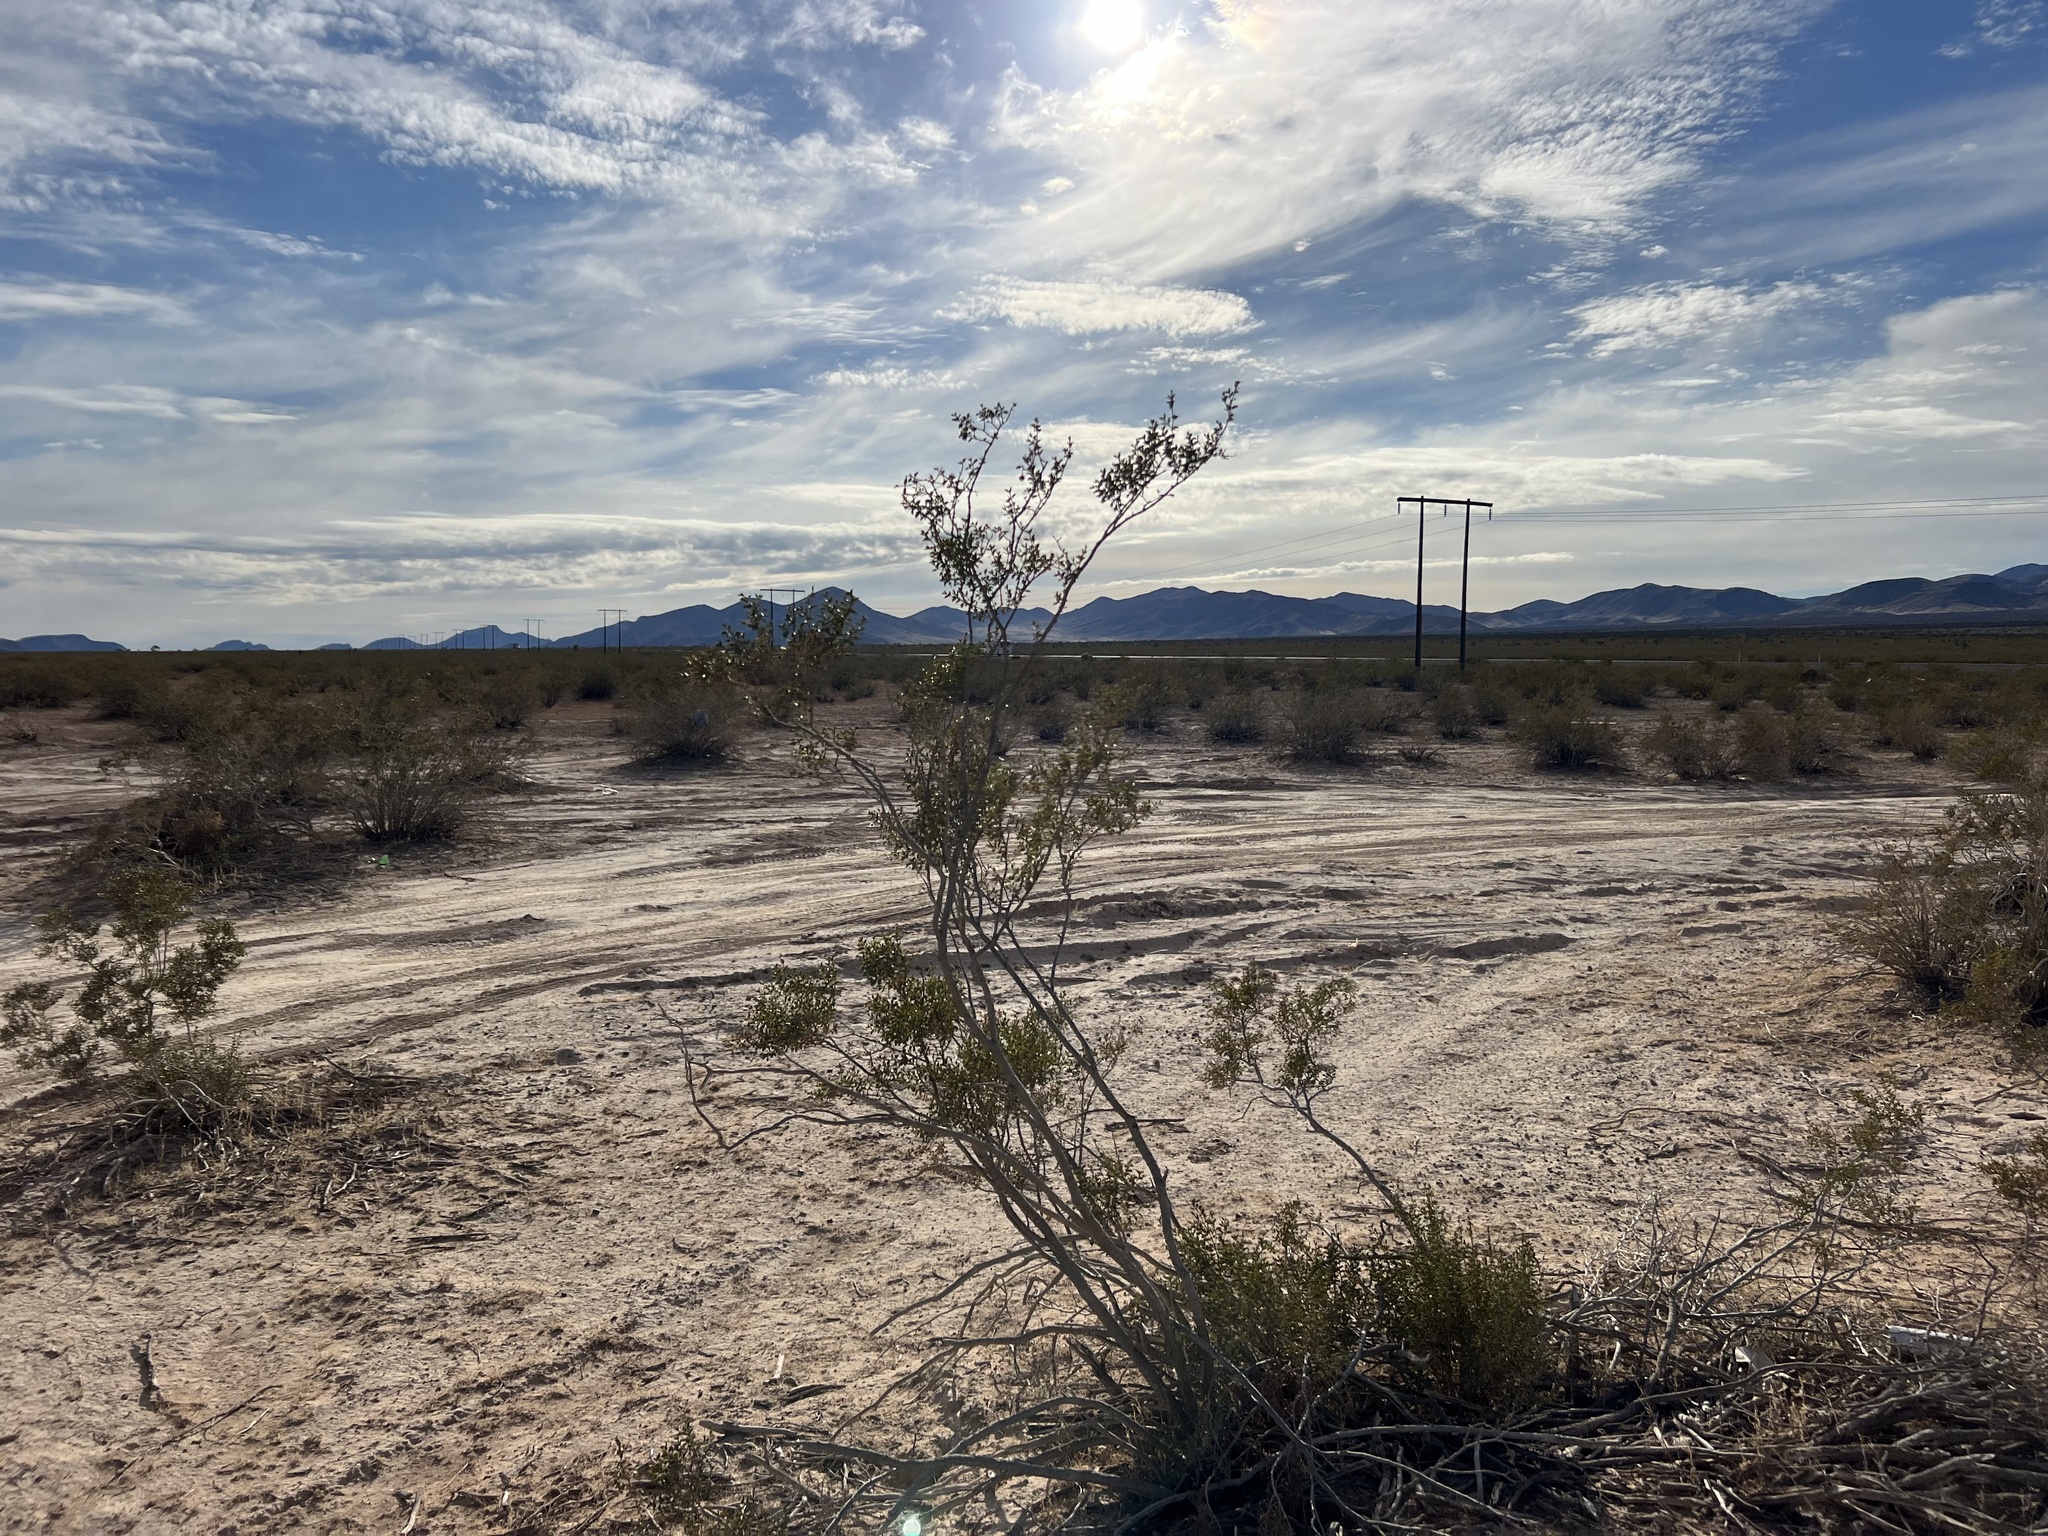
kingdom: Plantae
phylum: Tracheophyta
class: Magnoliopsida
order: Zygophyllales
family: Zygophyllaceae
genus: Larrea
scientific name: Larrea tridentata
